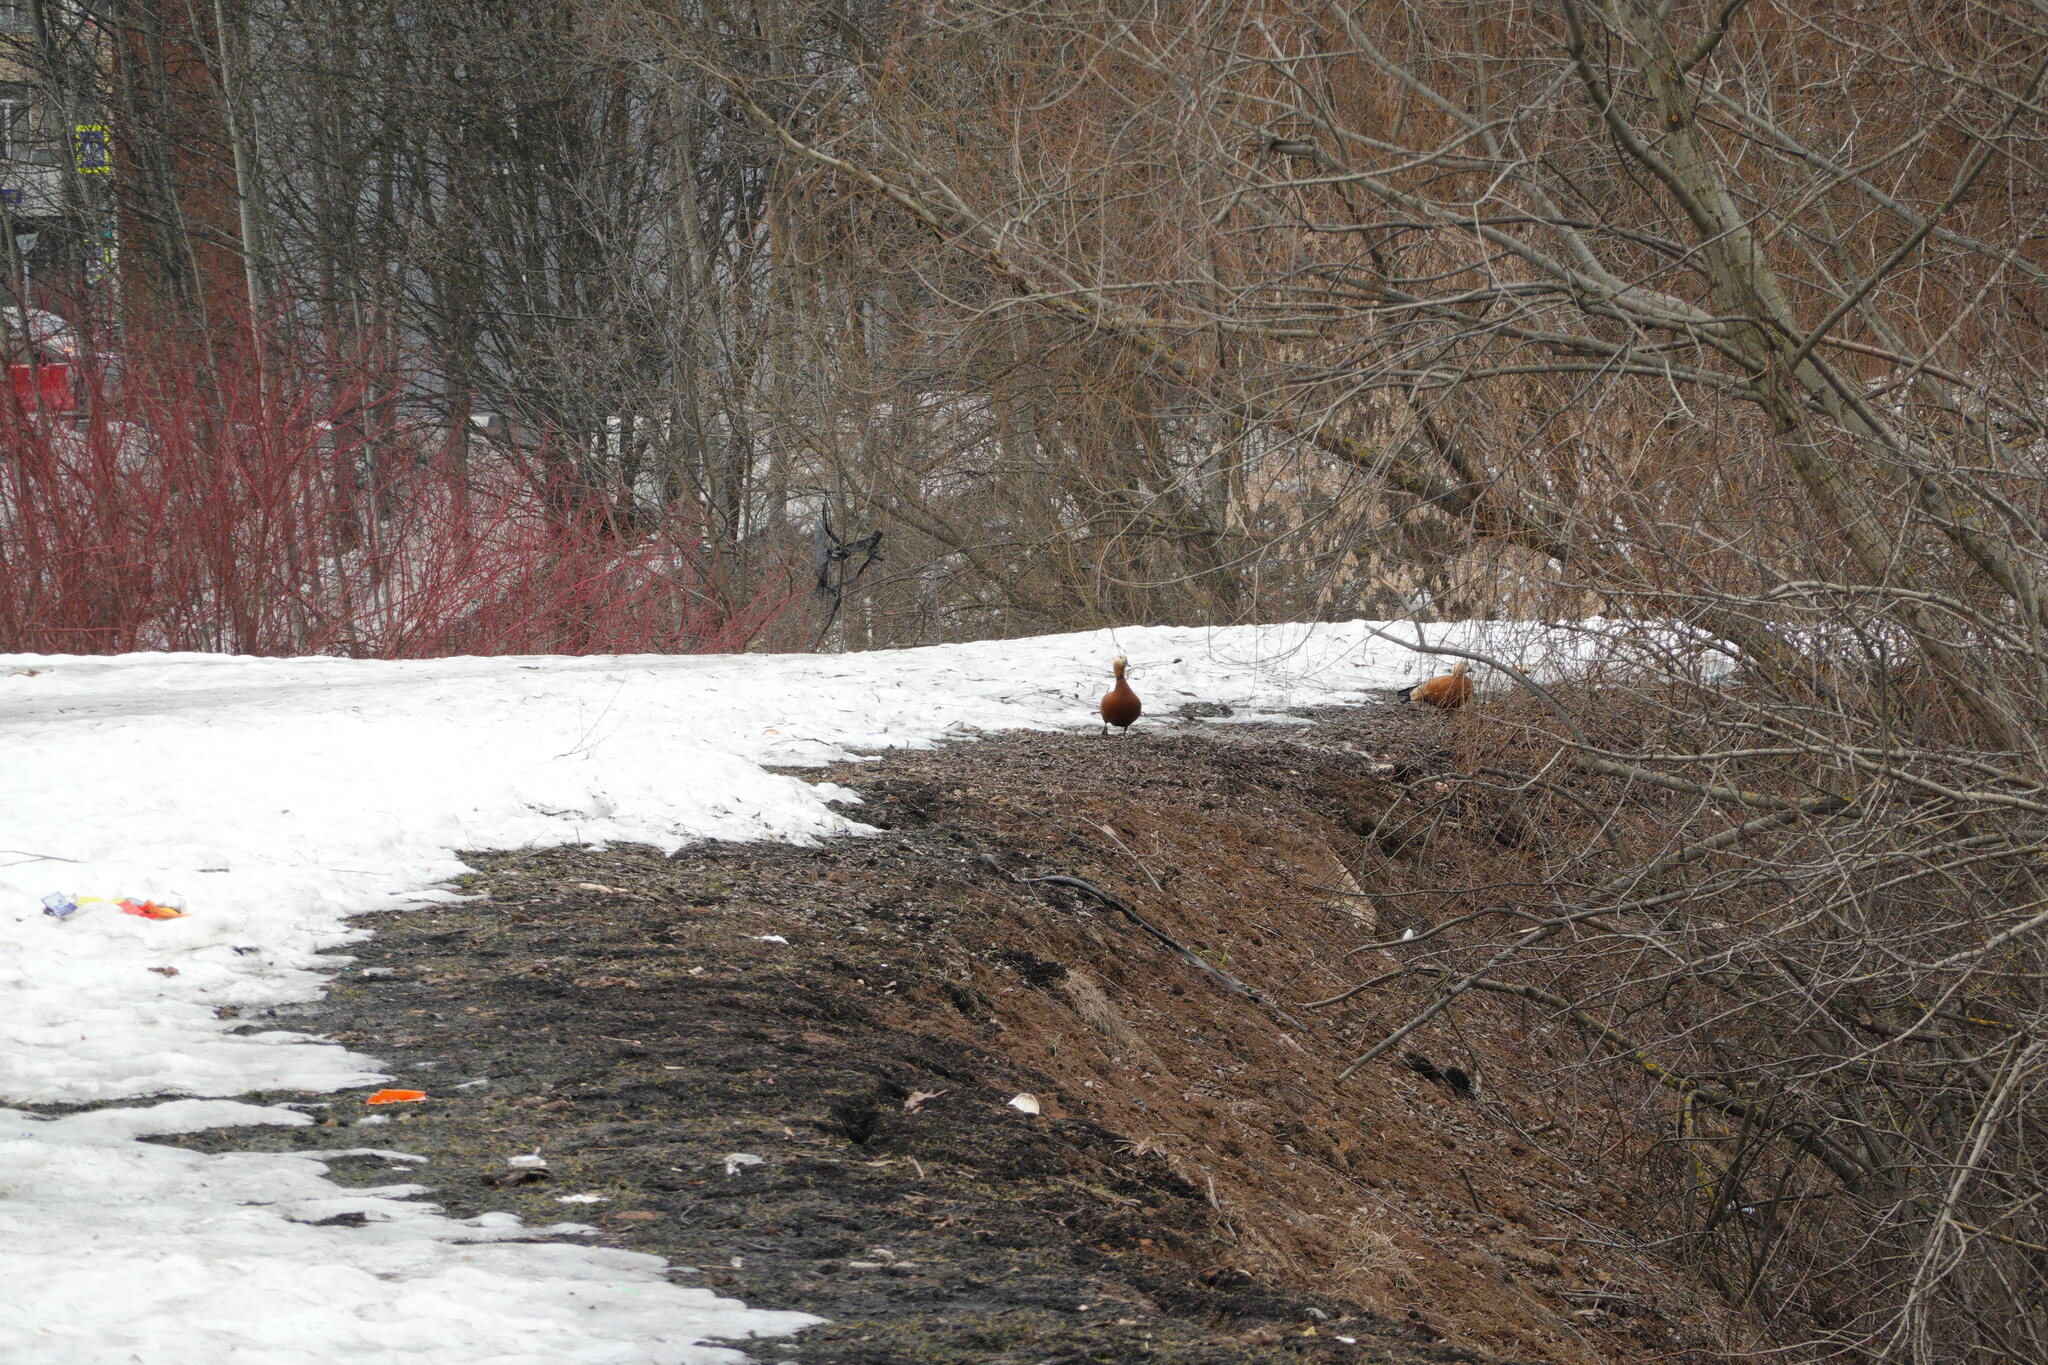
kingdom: Animalia
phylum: Chordata
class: Aves
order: Anseriformes
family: Anatidae
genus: Tadorna
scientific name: Tadorna ferruginea
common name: Ruddy shelduck
